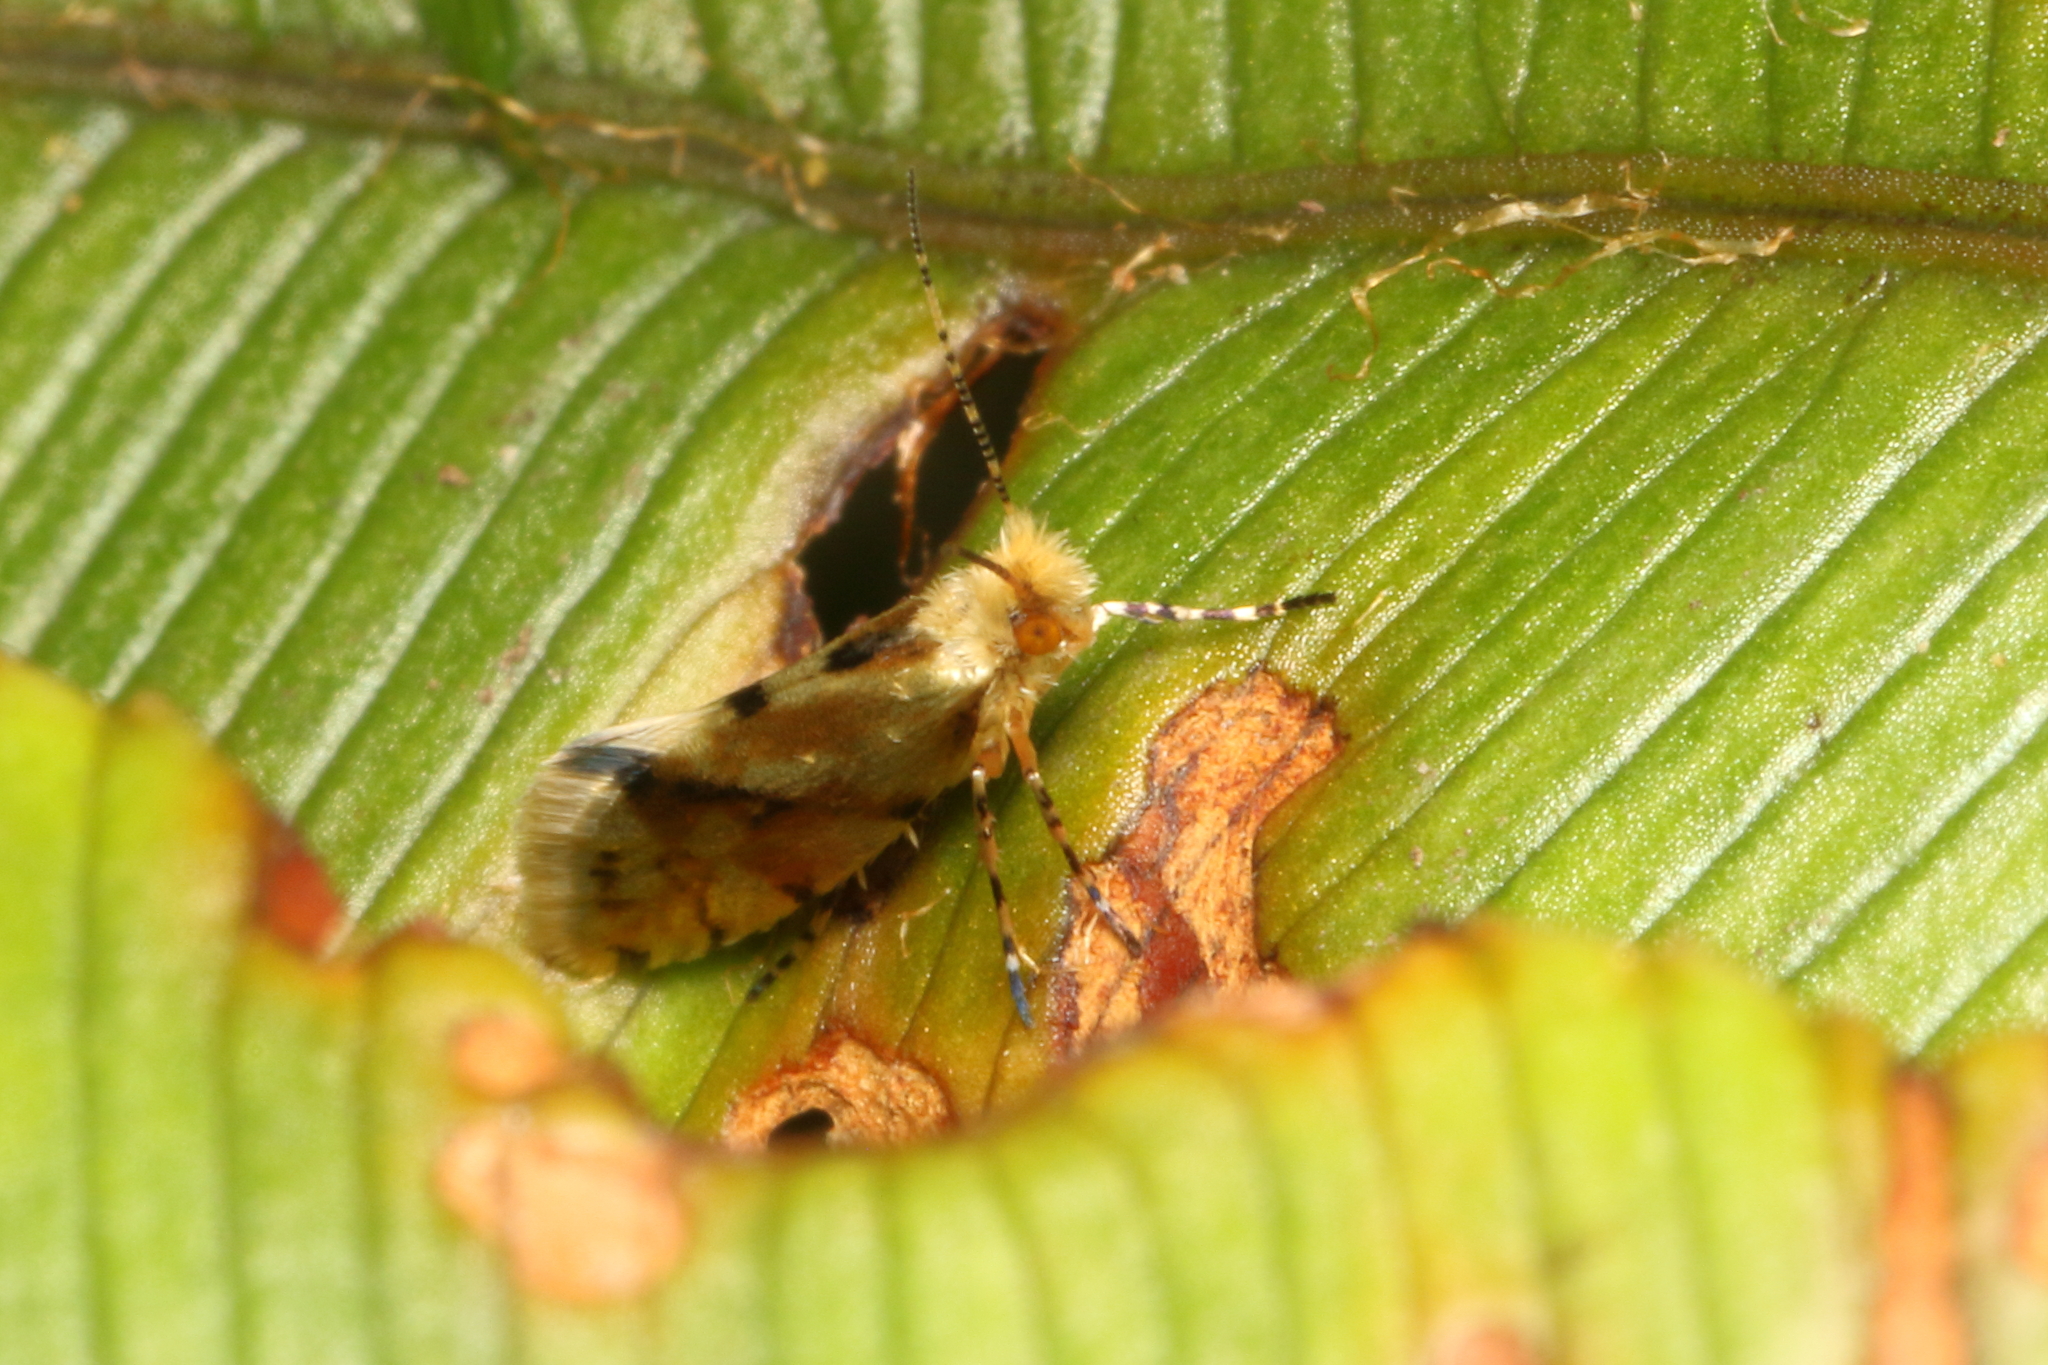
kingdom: Animalia
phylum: Arthropoda
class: Insecta
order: Lepidoptera
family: Micropterigidae
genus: Sabatinca
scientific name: Sabatinca chalcophanes
